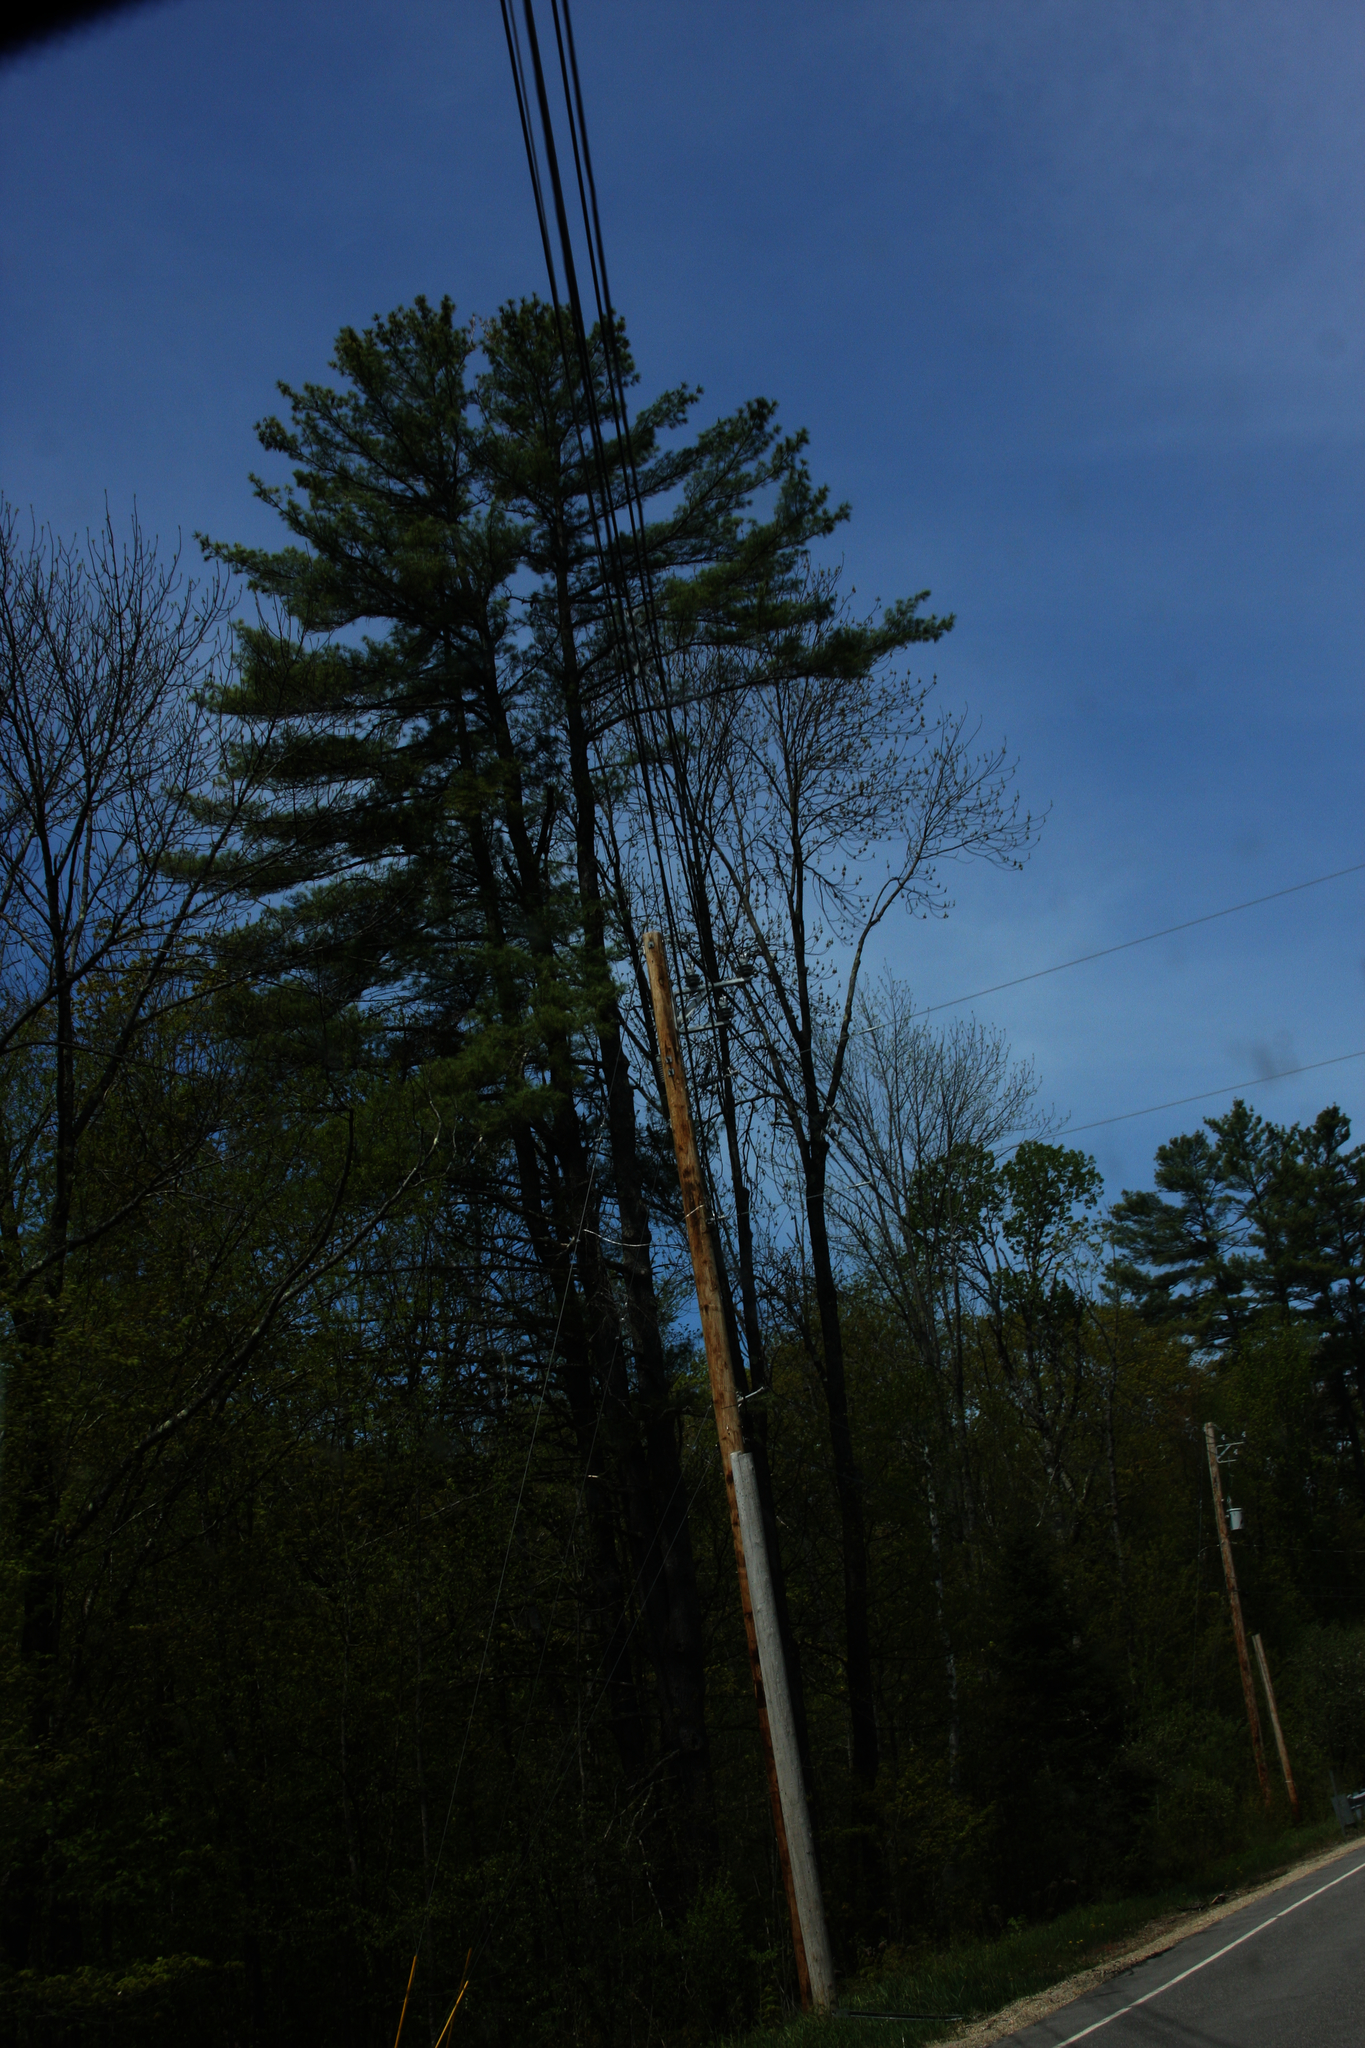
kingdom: Plantae
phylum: Tracheophyta
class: Pinopsida
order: Pinales
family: Pinaceae
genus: Pinus
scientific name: Pinus strobus
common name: Weymouth pine
